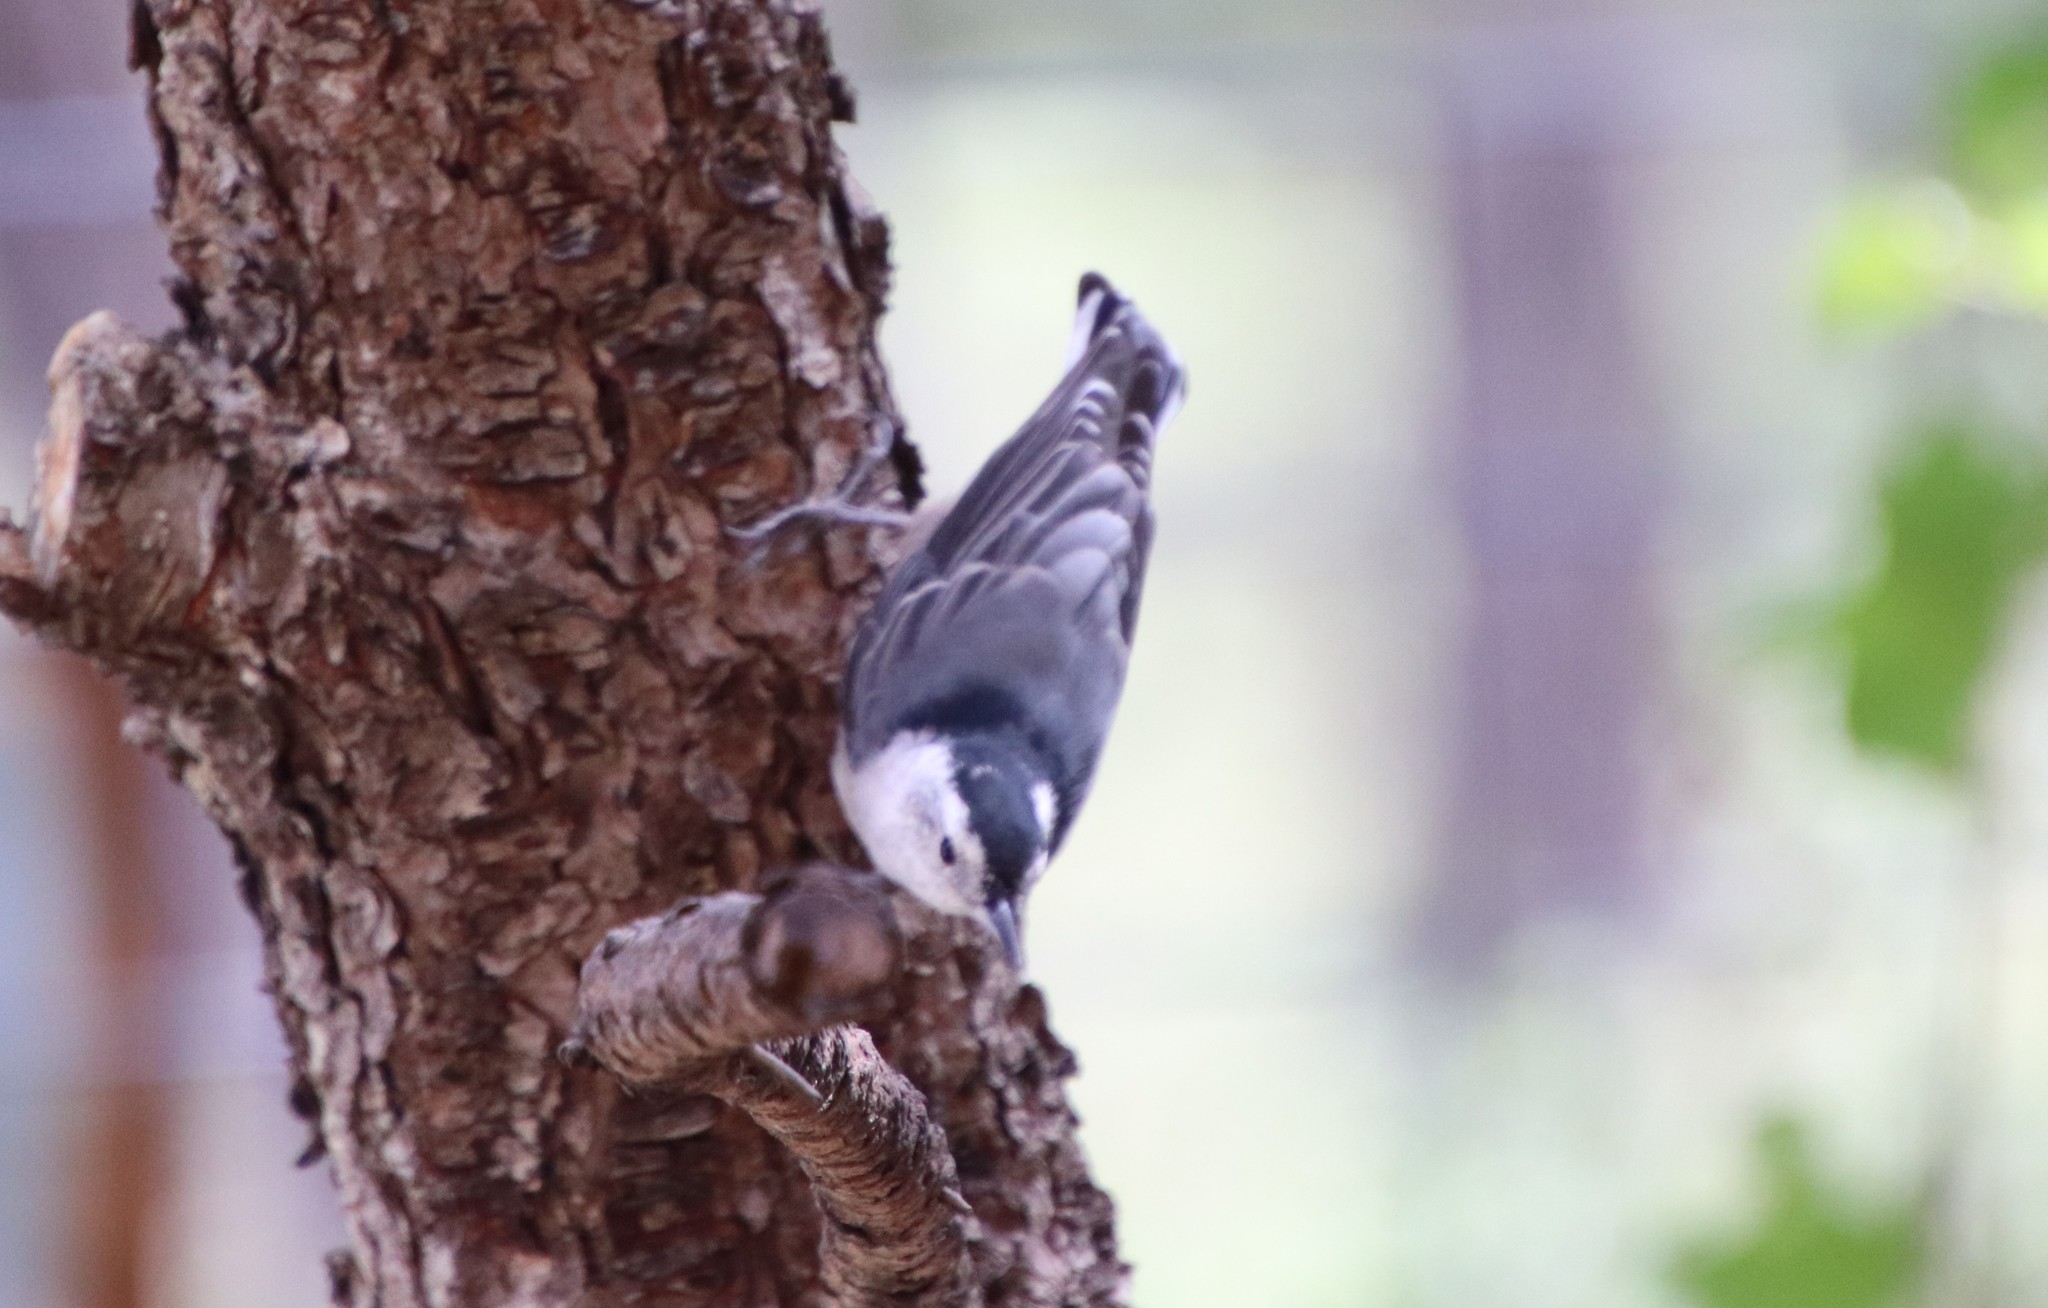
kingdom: Animalia
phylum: Chordata
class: Aves
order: Passeriformes
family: Sittidae
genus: Sitta
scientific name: Sitta carolinensis
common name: White-breasted nuthatch
